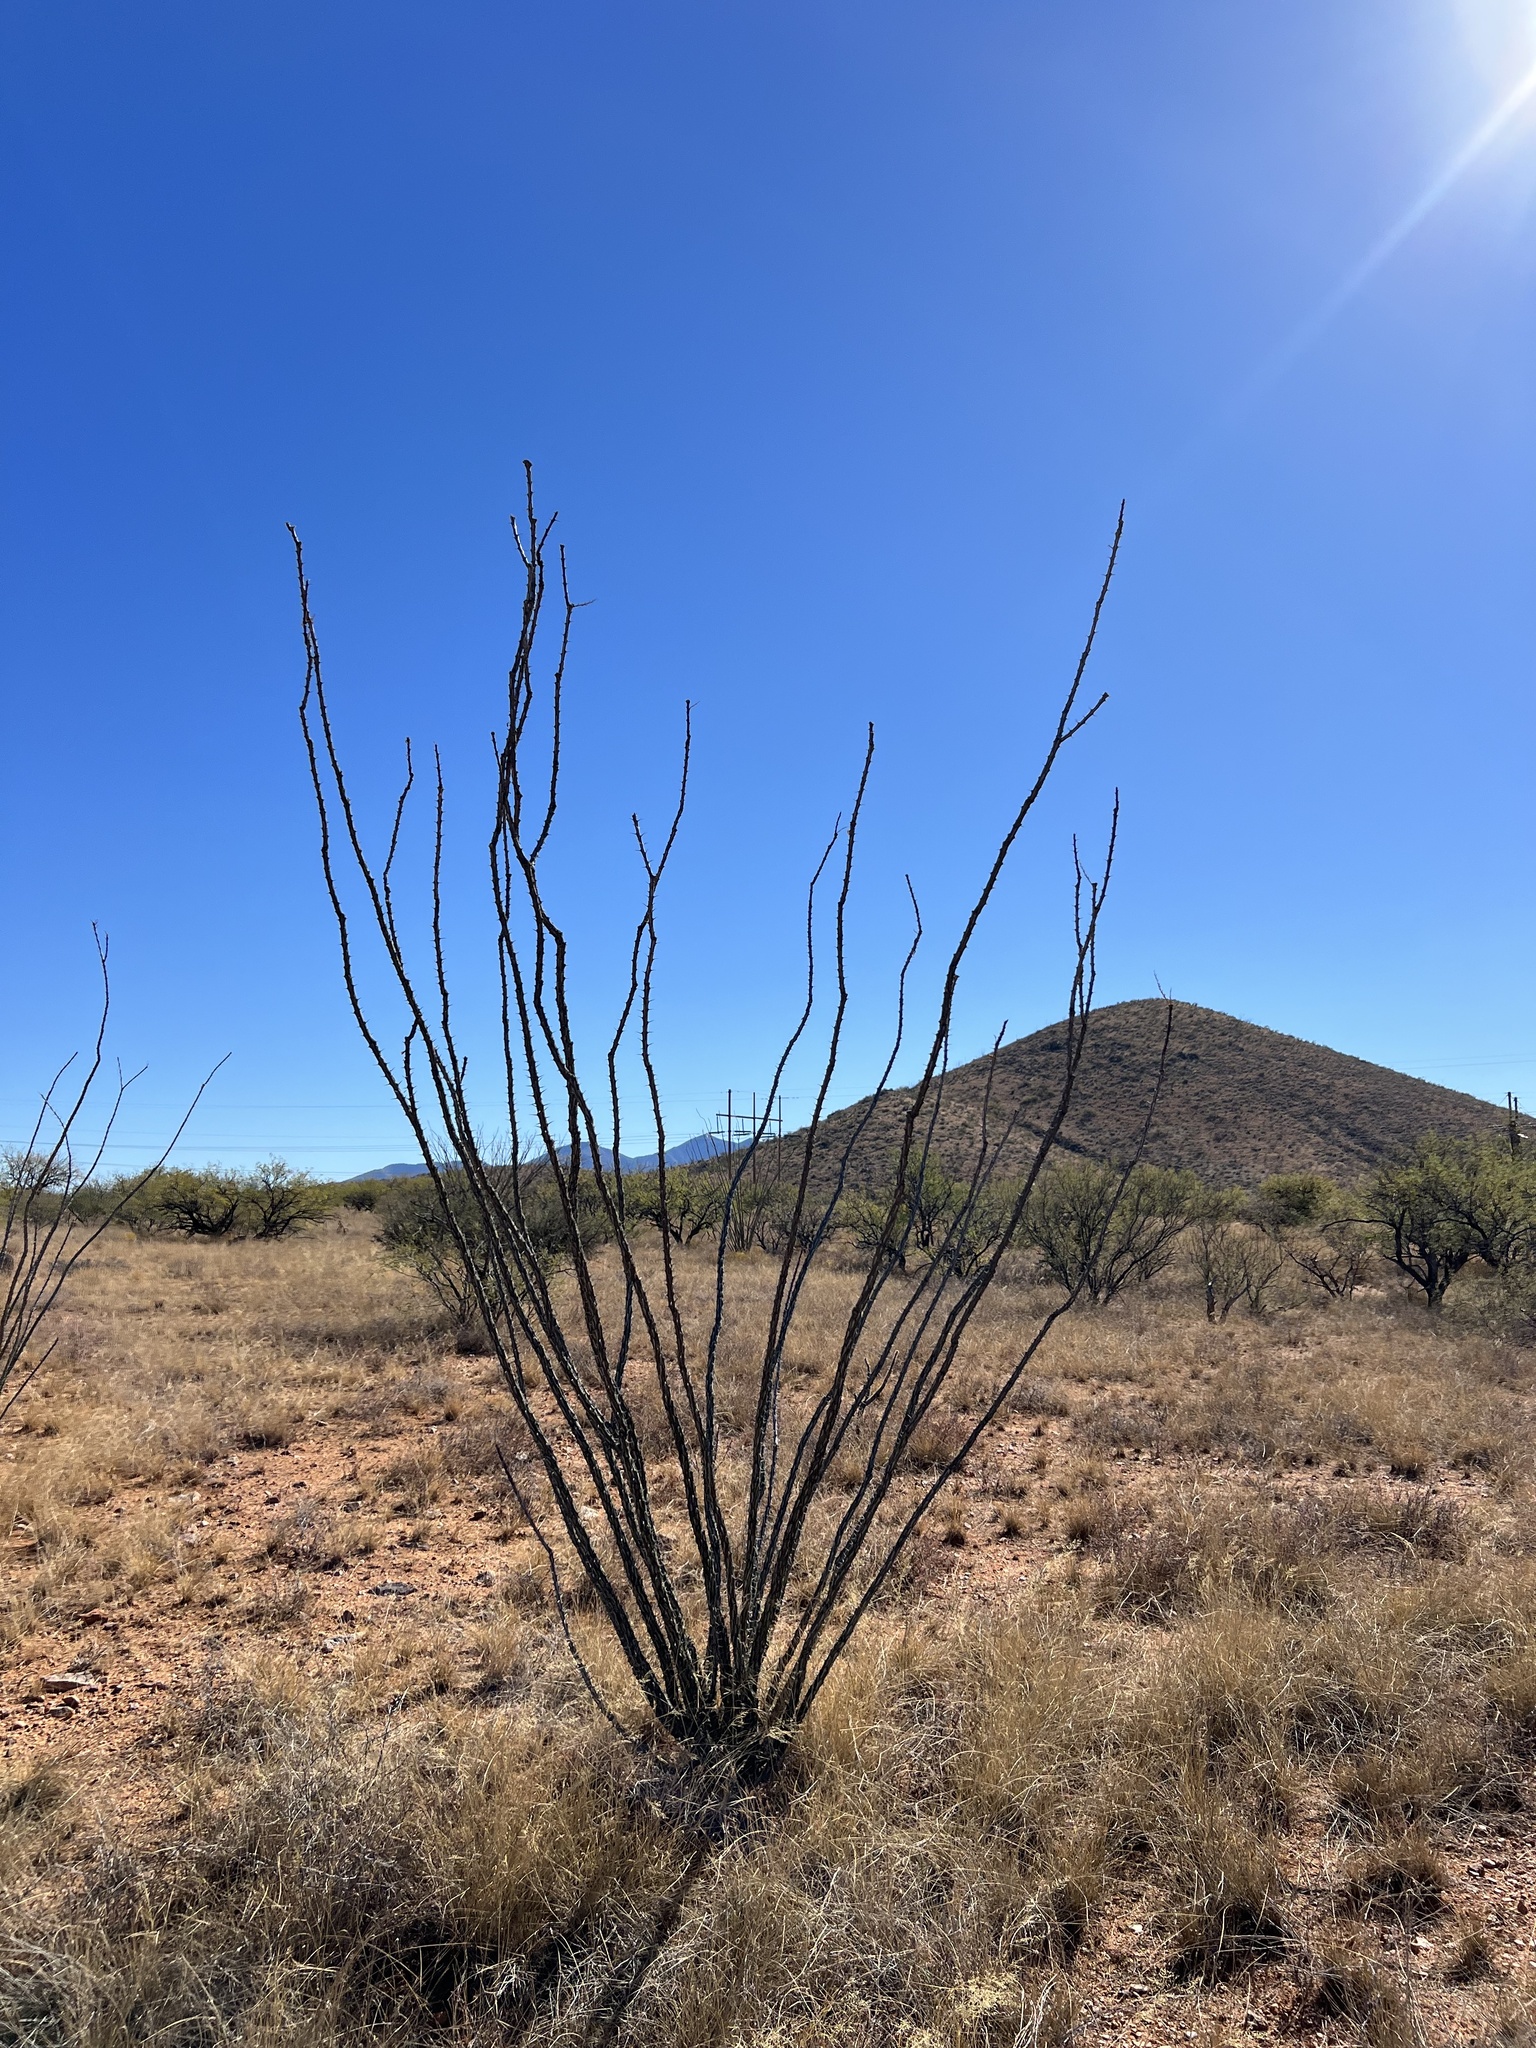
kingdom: Plantae
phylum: Tracheophyta
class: Magnoliopsida
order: Ericales
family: Fouquieriaceae
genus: Fouquieria
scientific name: Fouquieria splendens
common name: Vine-cactus
